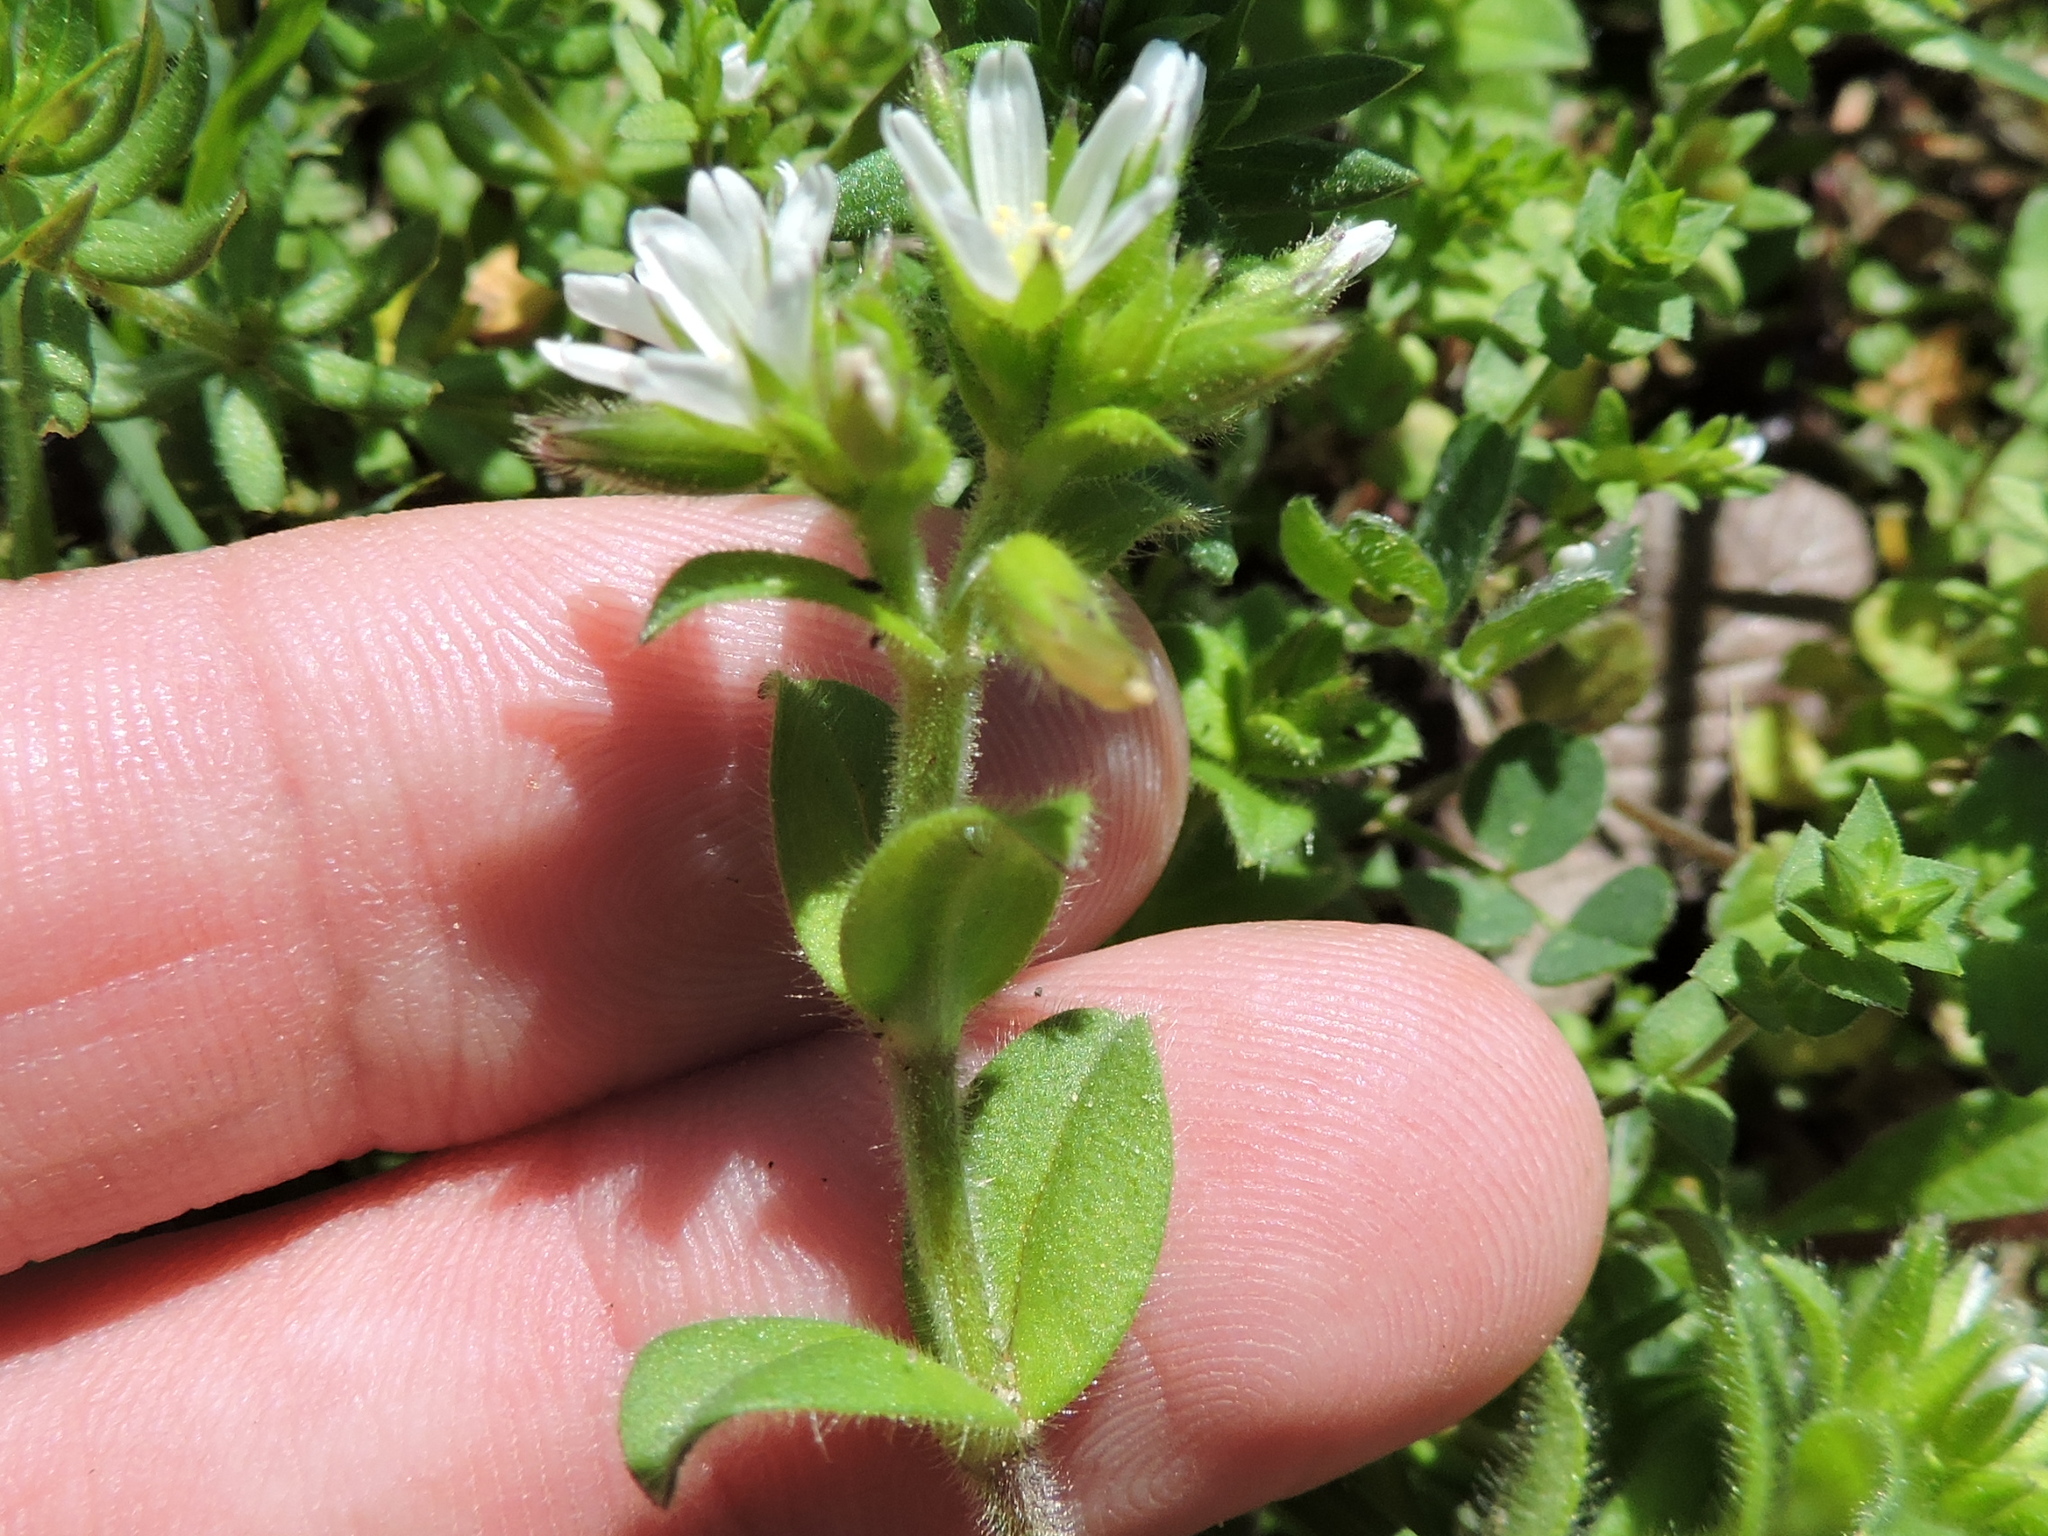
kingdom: Plantae
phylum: Tracheophyta
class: Magnoliopsida
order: Caryophyllales
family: Caryophyllaceae
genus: Cerastium
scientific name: Cerastium glomeratum
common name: Sticky chickweed
